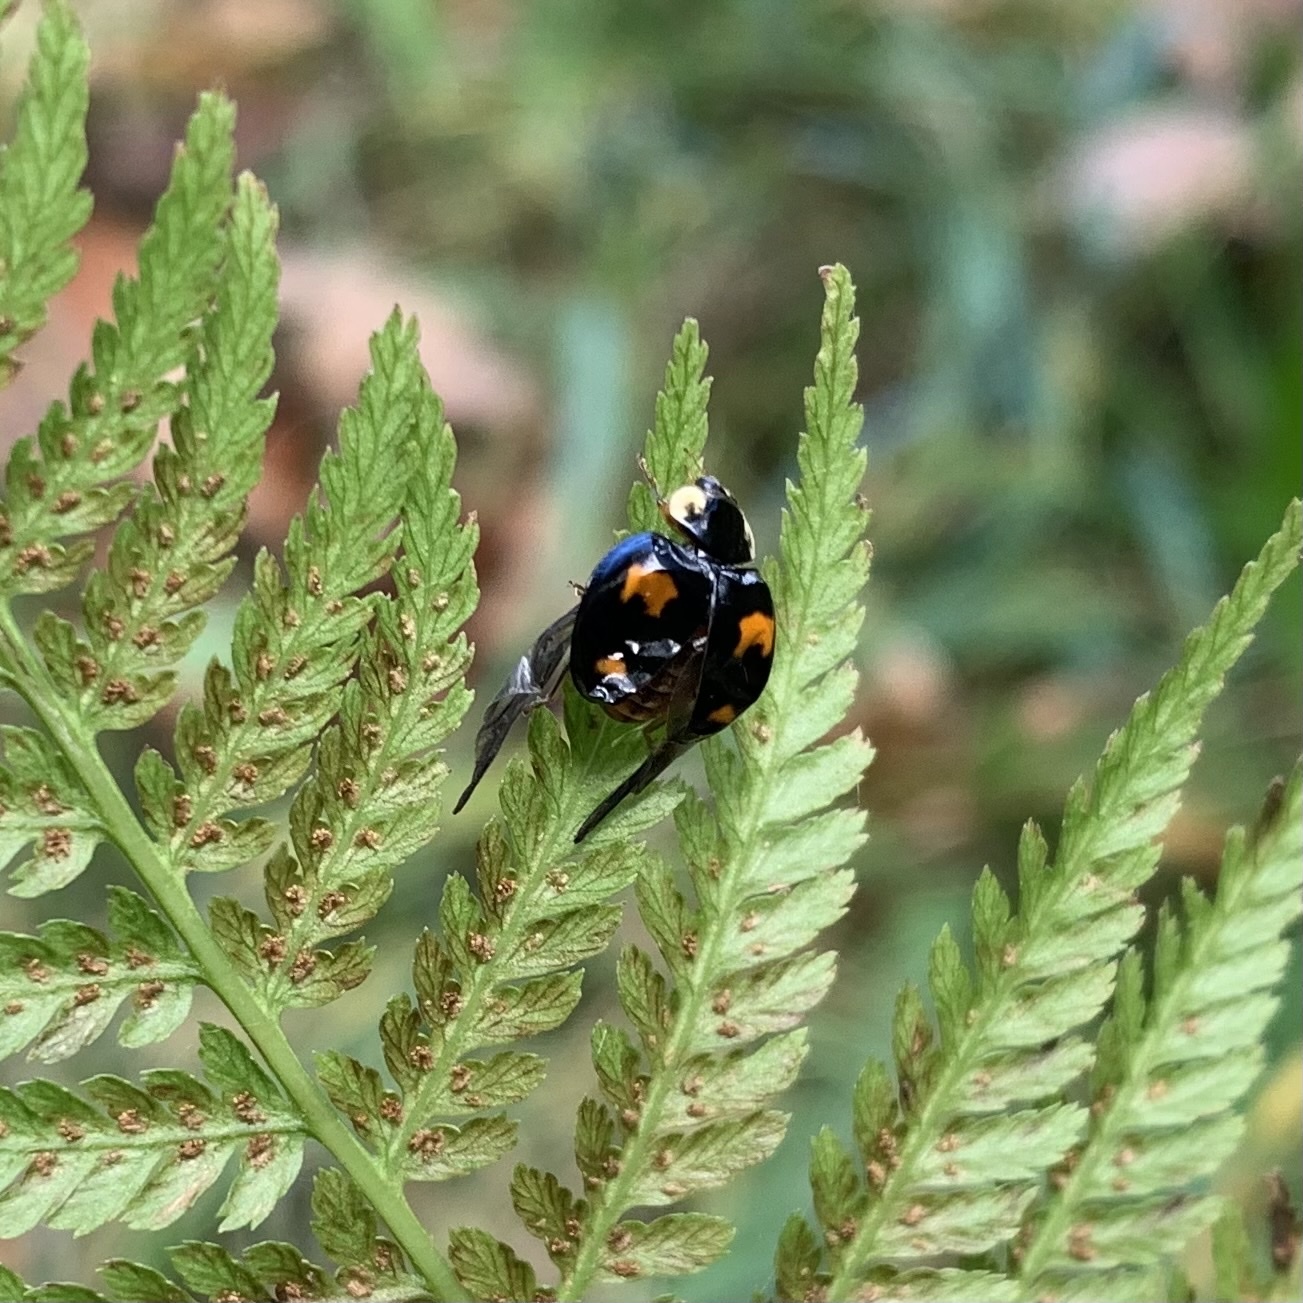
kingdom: Animalia
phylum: Arthropoda
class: Insecta
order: Coleoptera
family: Coccinellidae
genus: Harmonia
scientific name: Harmonia axyridis
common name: Harlequin ladybird
